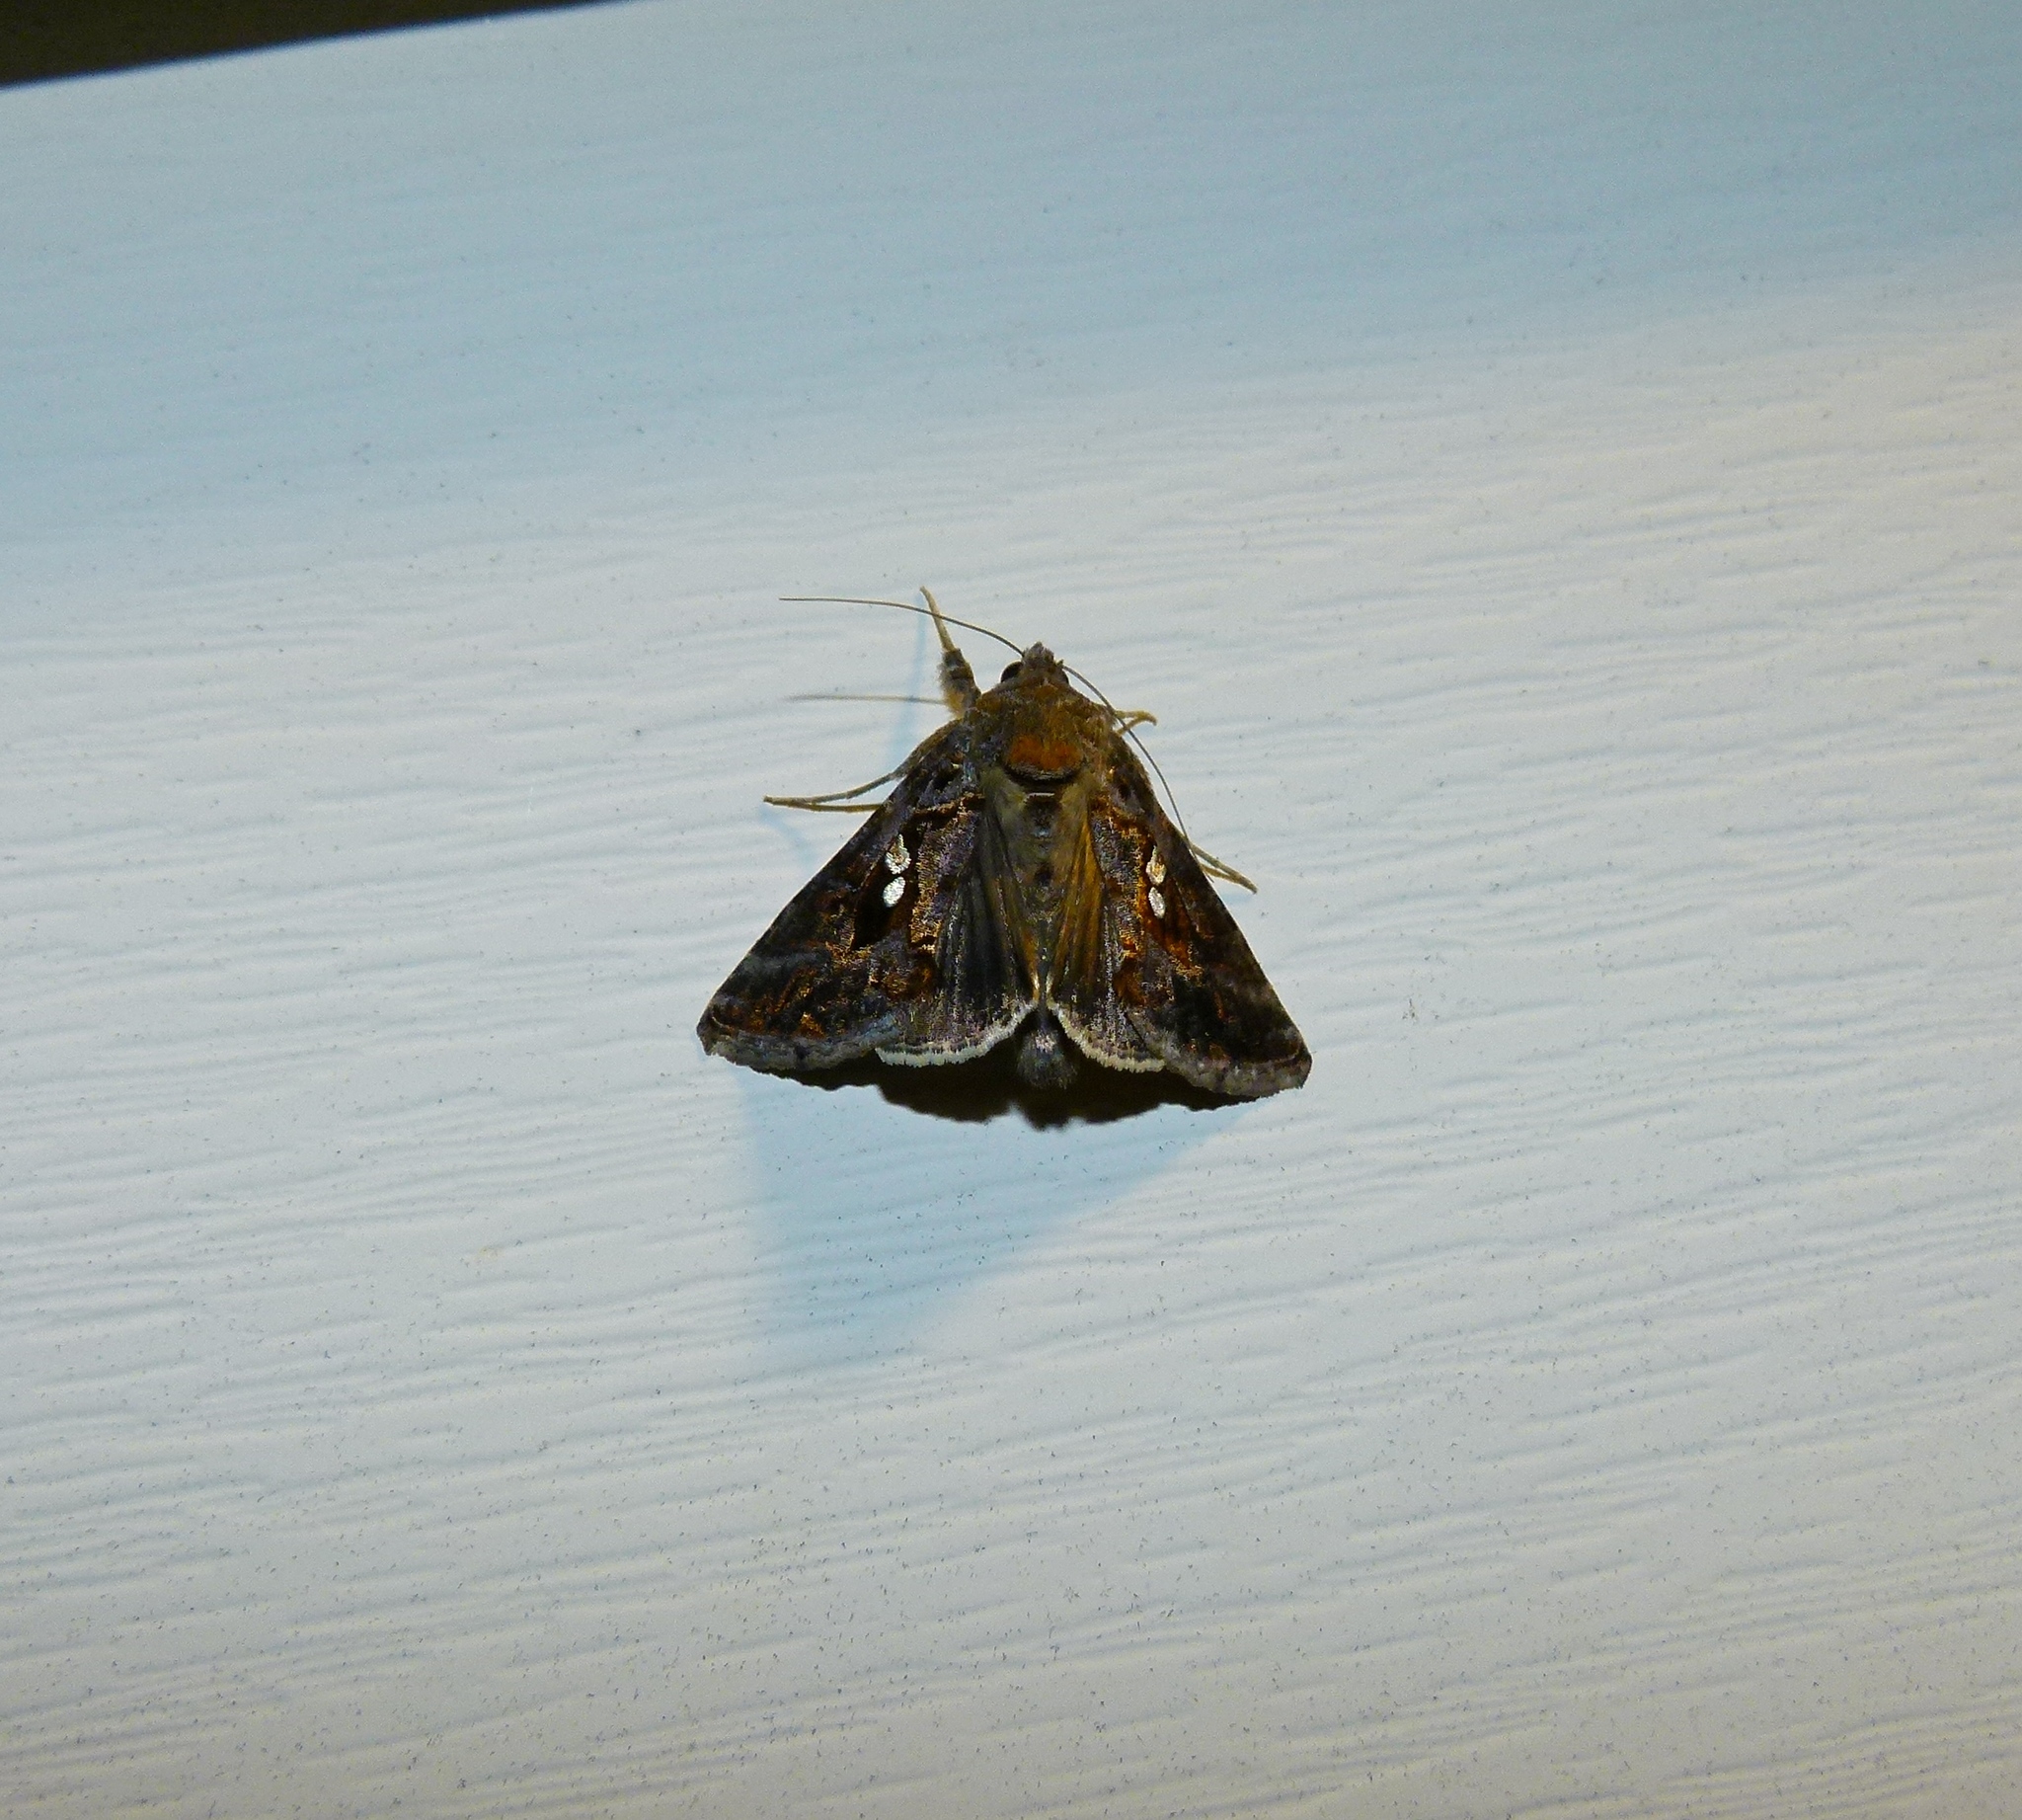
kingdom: Animalia
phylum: Arthropoda
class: Insecta
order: Lepidoptera
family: Noctuidae
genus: Chrysodeixis
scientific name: Chrysodeixis includens
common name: Cutworm moth
